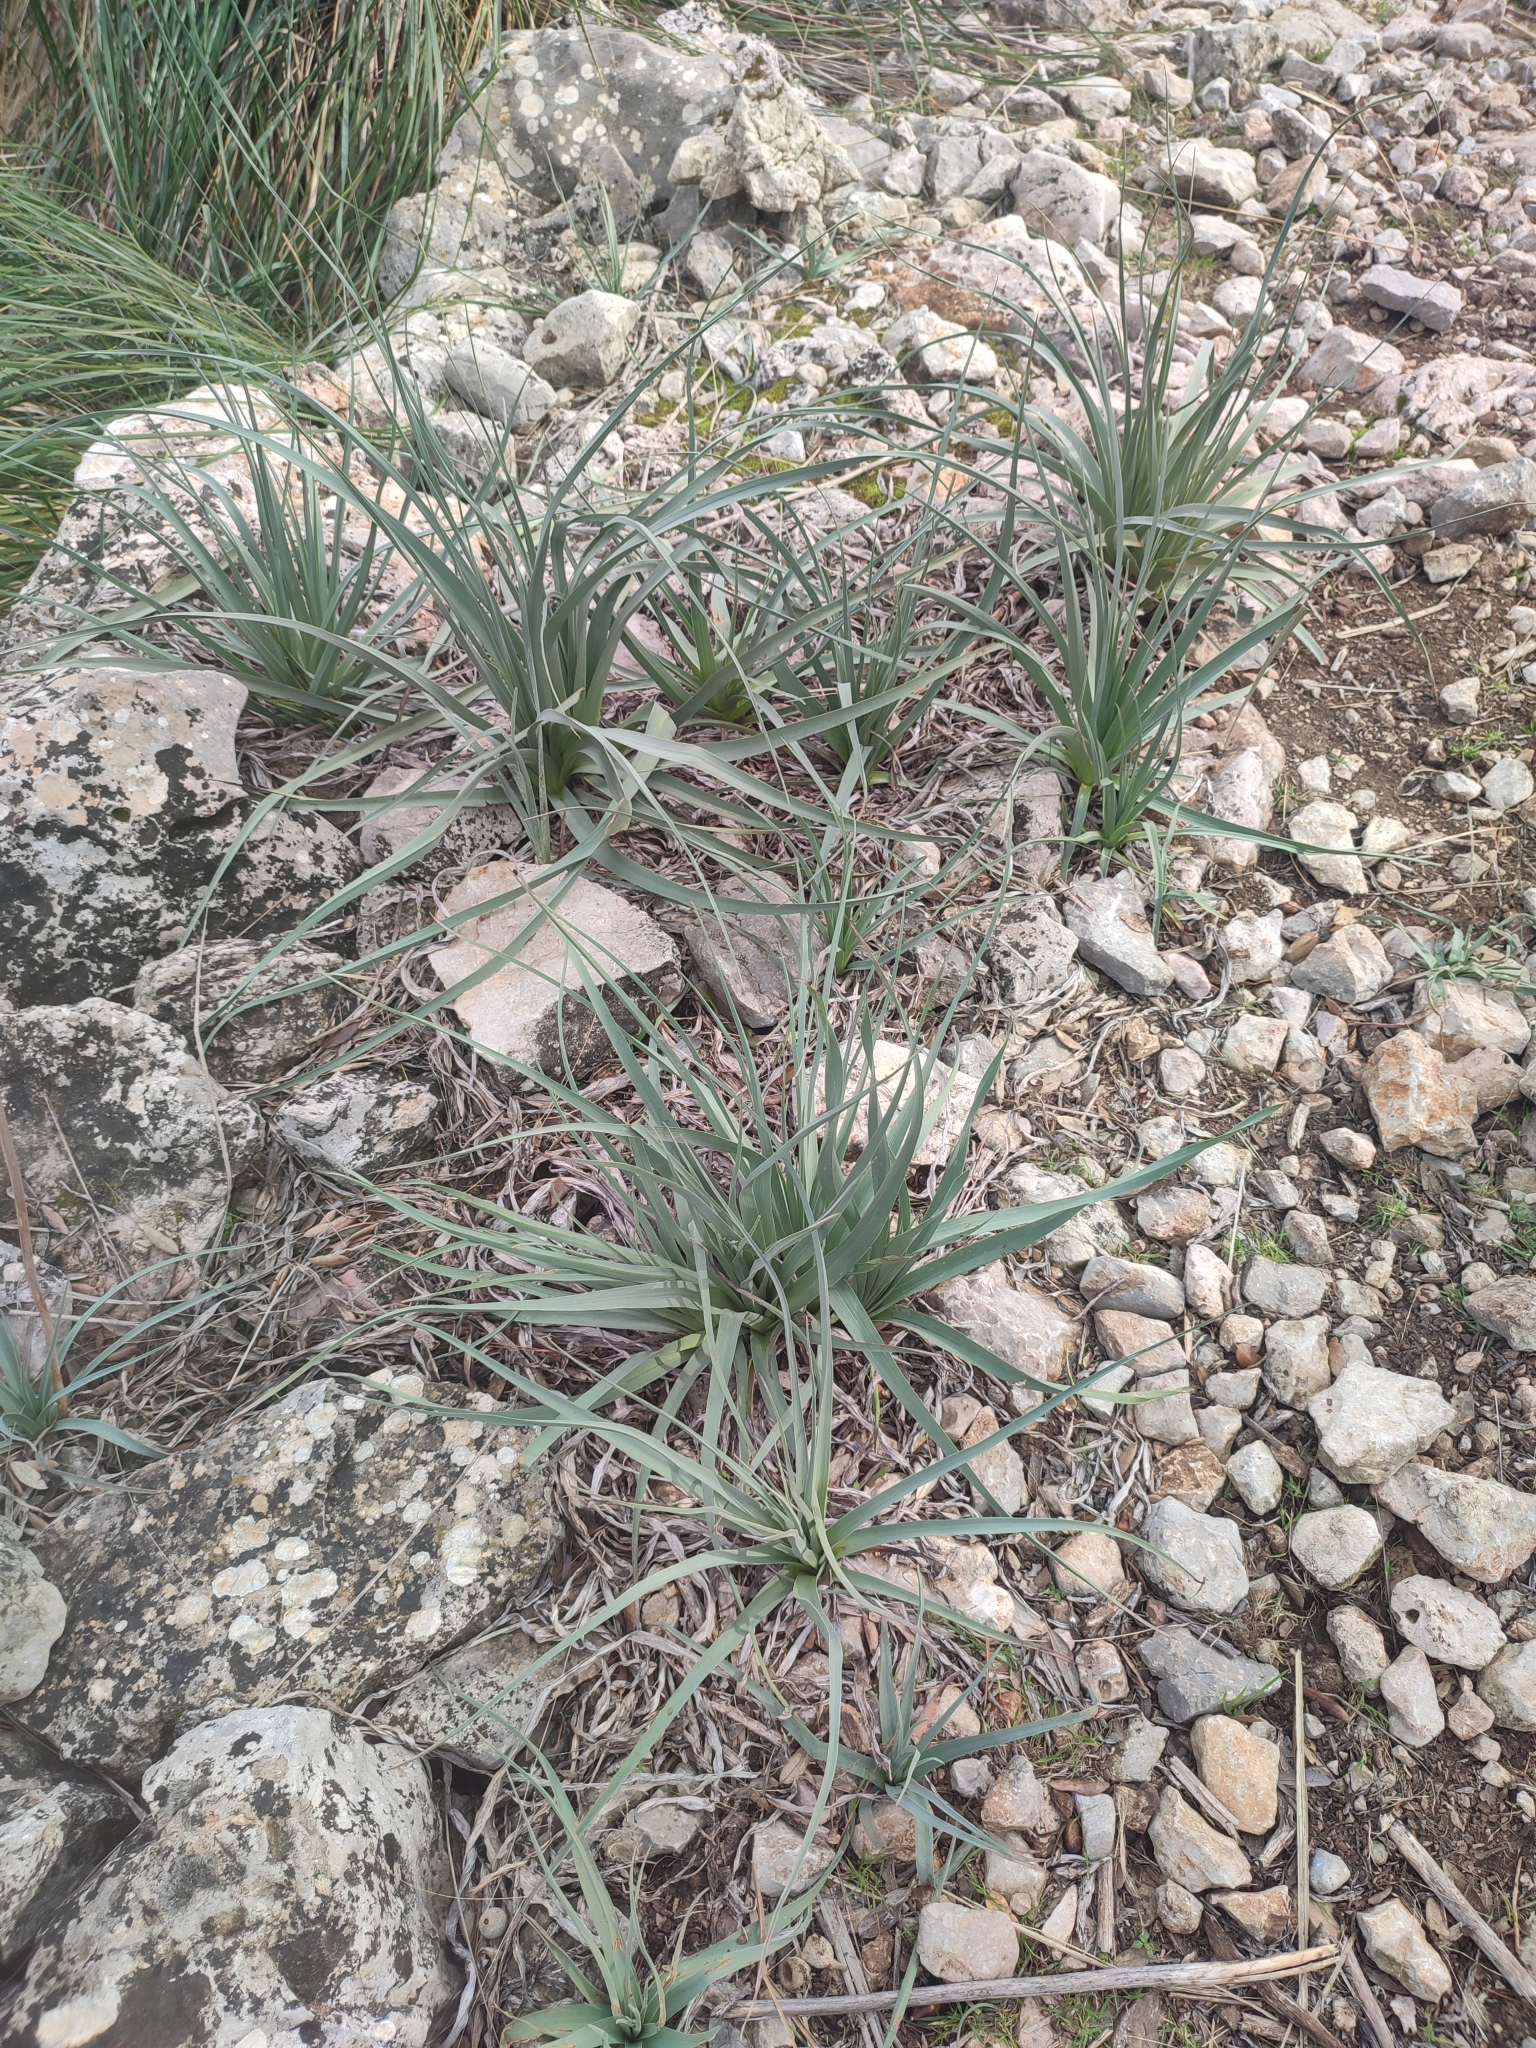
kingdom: Plantae
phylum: Tracheophyta
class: Liliopsida
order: Asparagales
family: Asphodelaceae
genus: Asphodelus
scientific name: Asphodelus ramosus
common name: Silverrod
